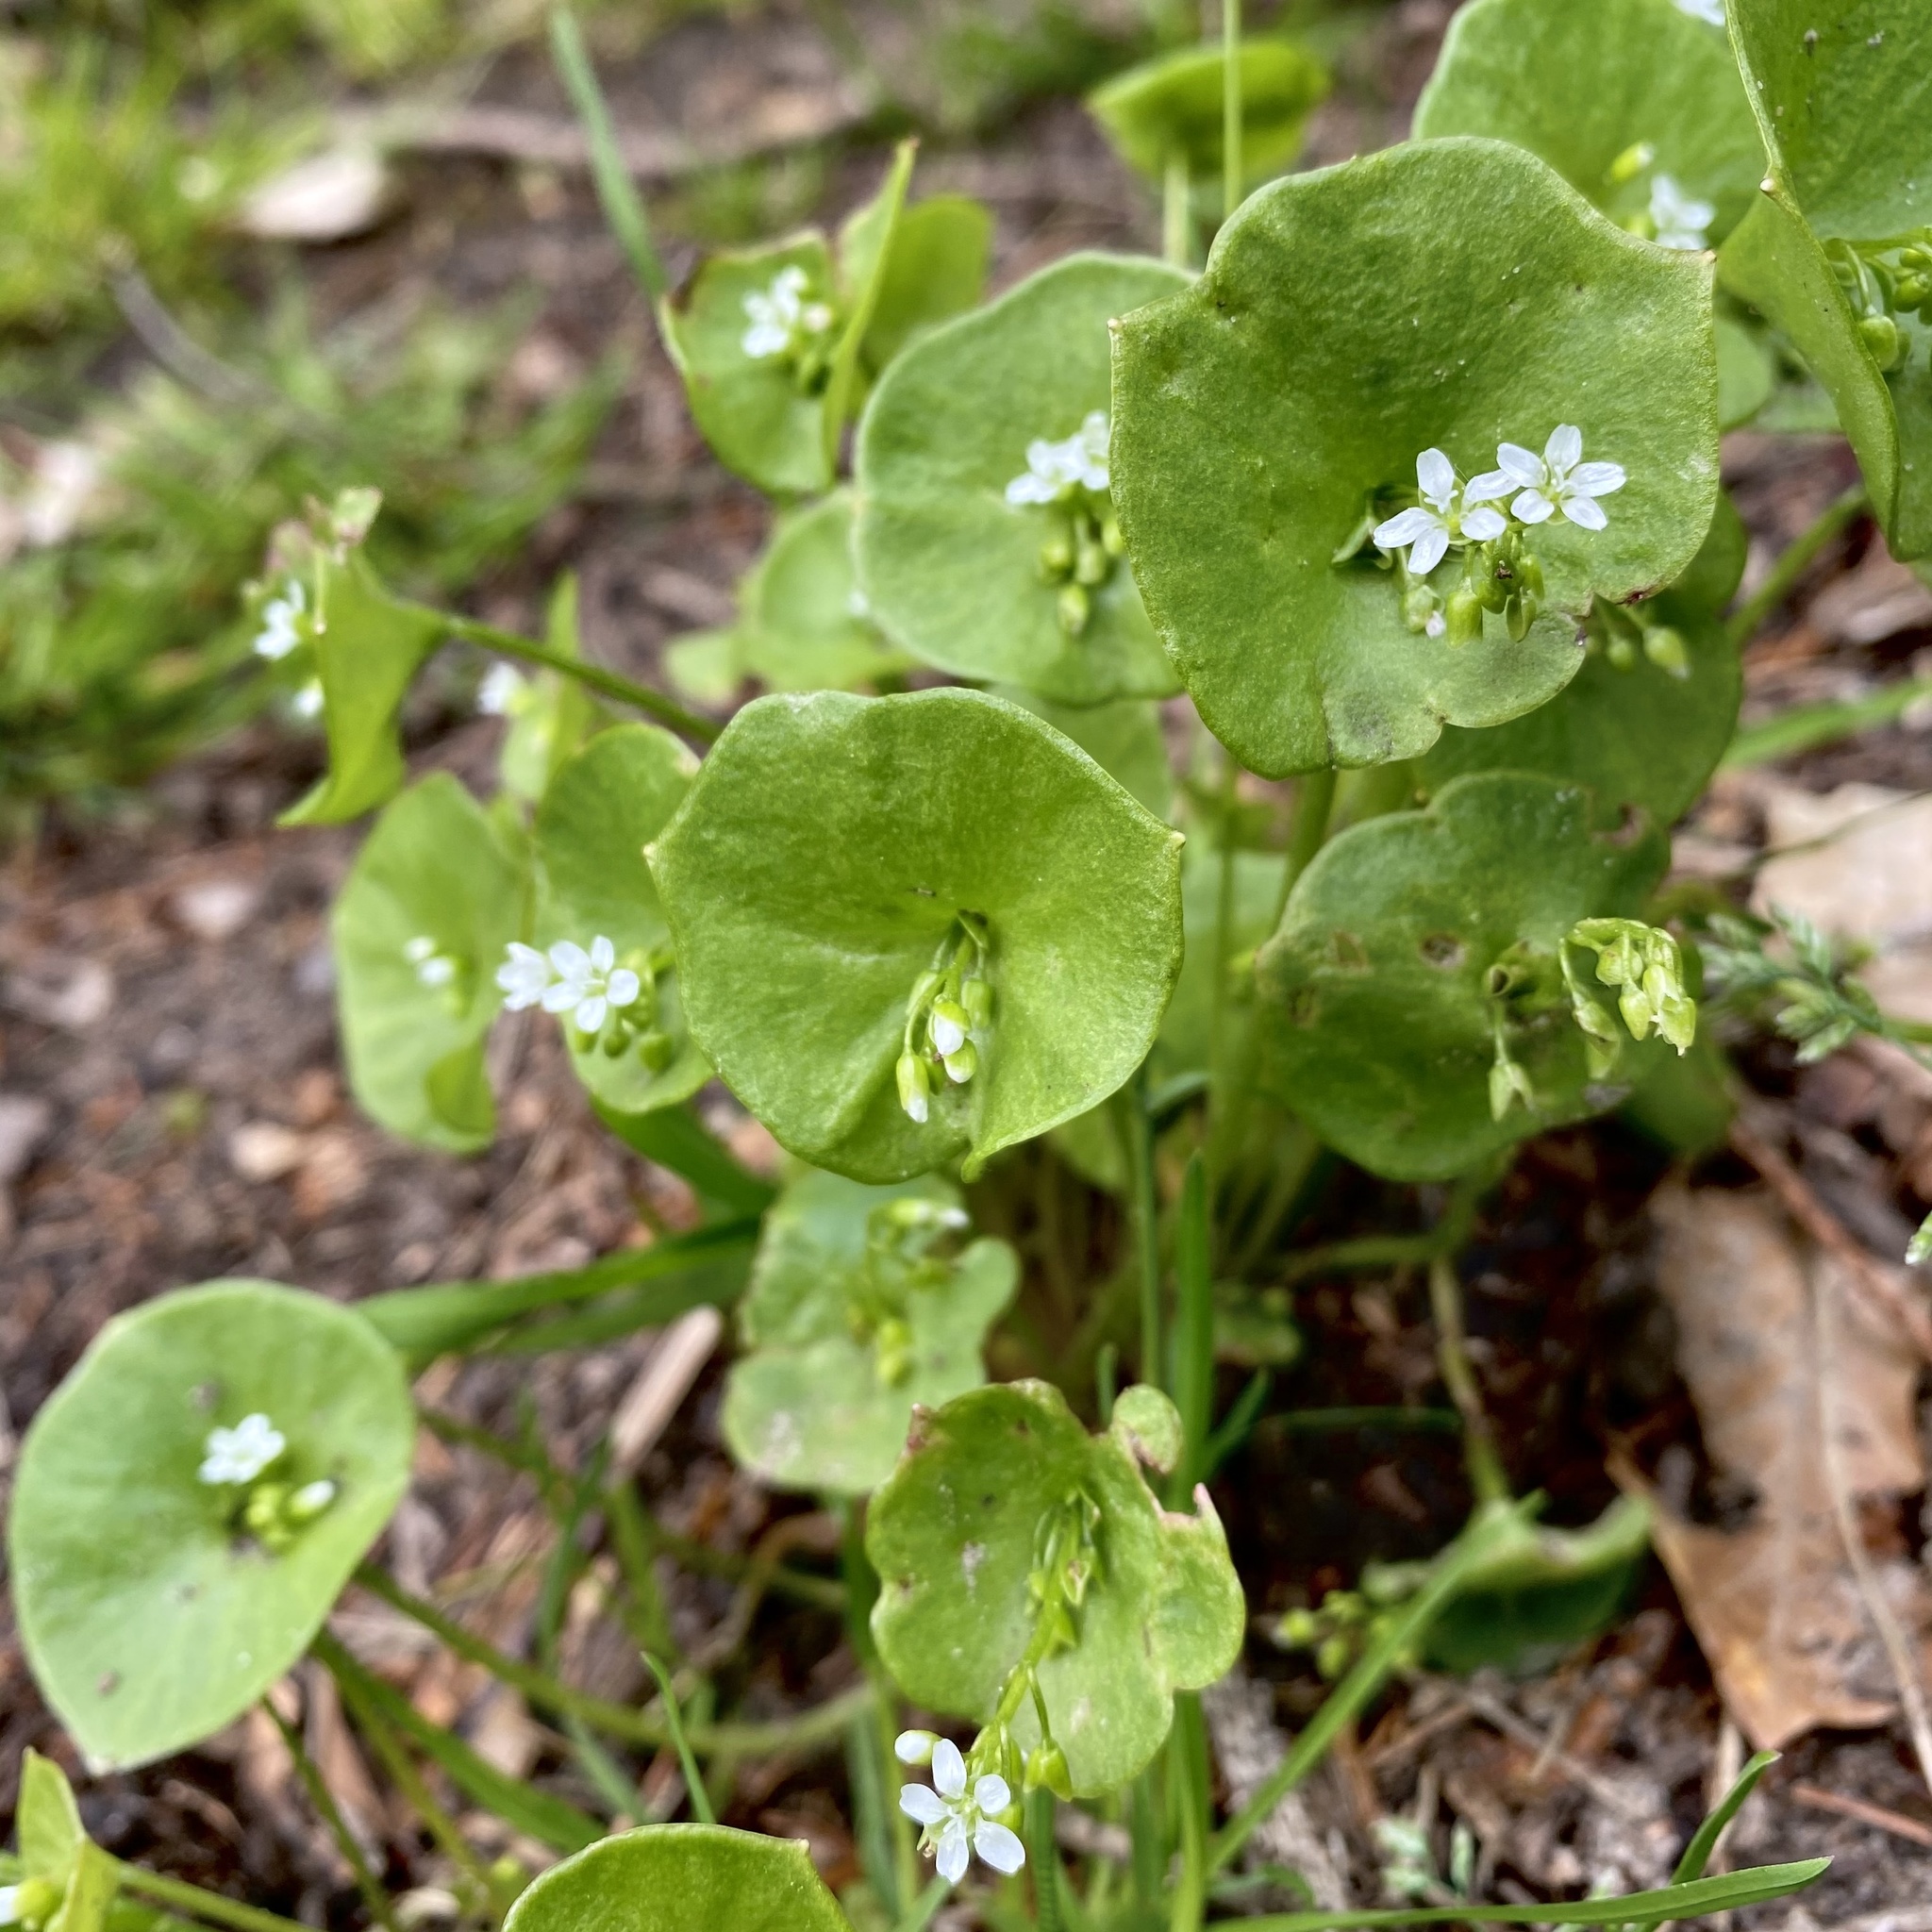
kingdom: Plantae
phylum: Tracheophyta
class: Magnoliopsida
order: Caryophyllales
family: Montiaceae
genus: Claytonia
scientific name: Claytonia perfoliata
